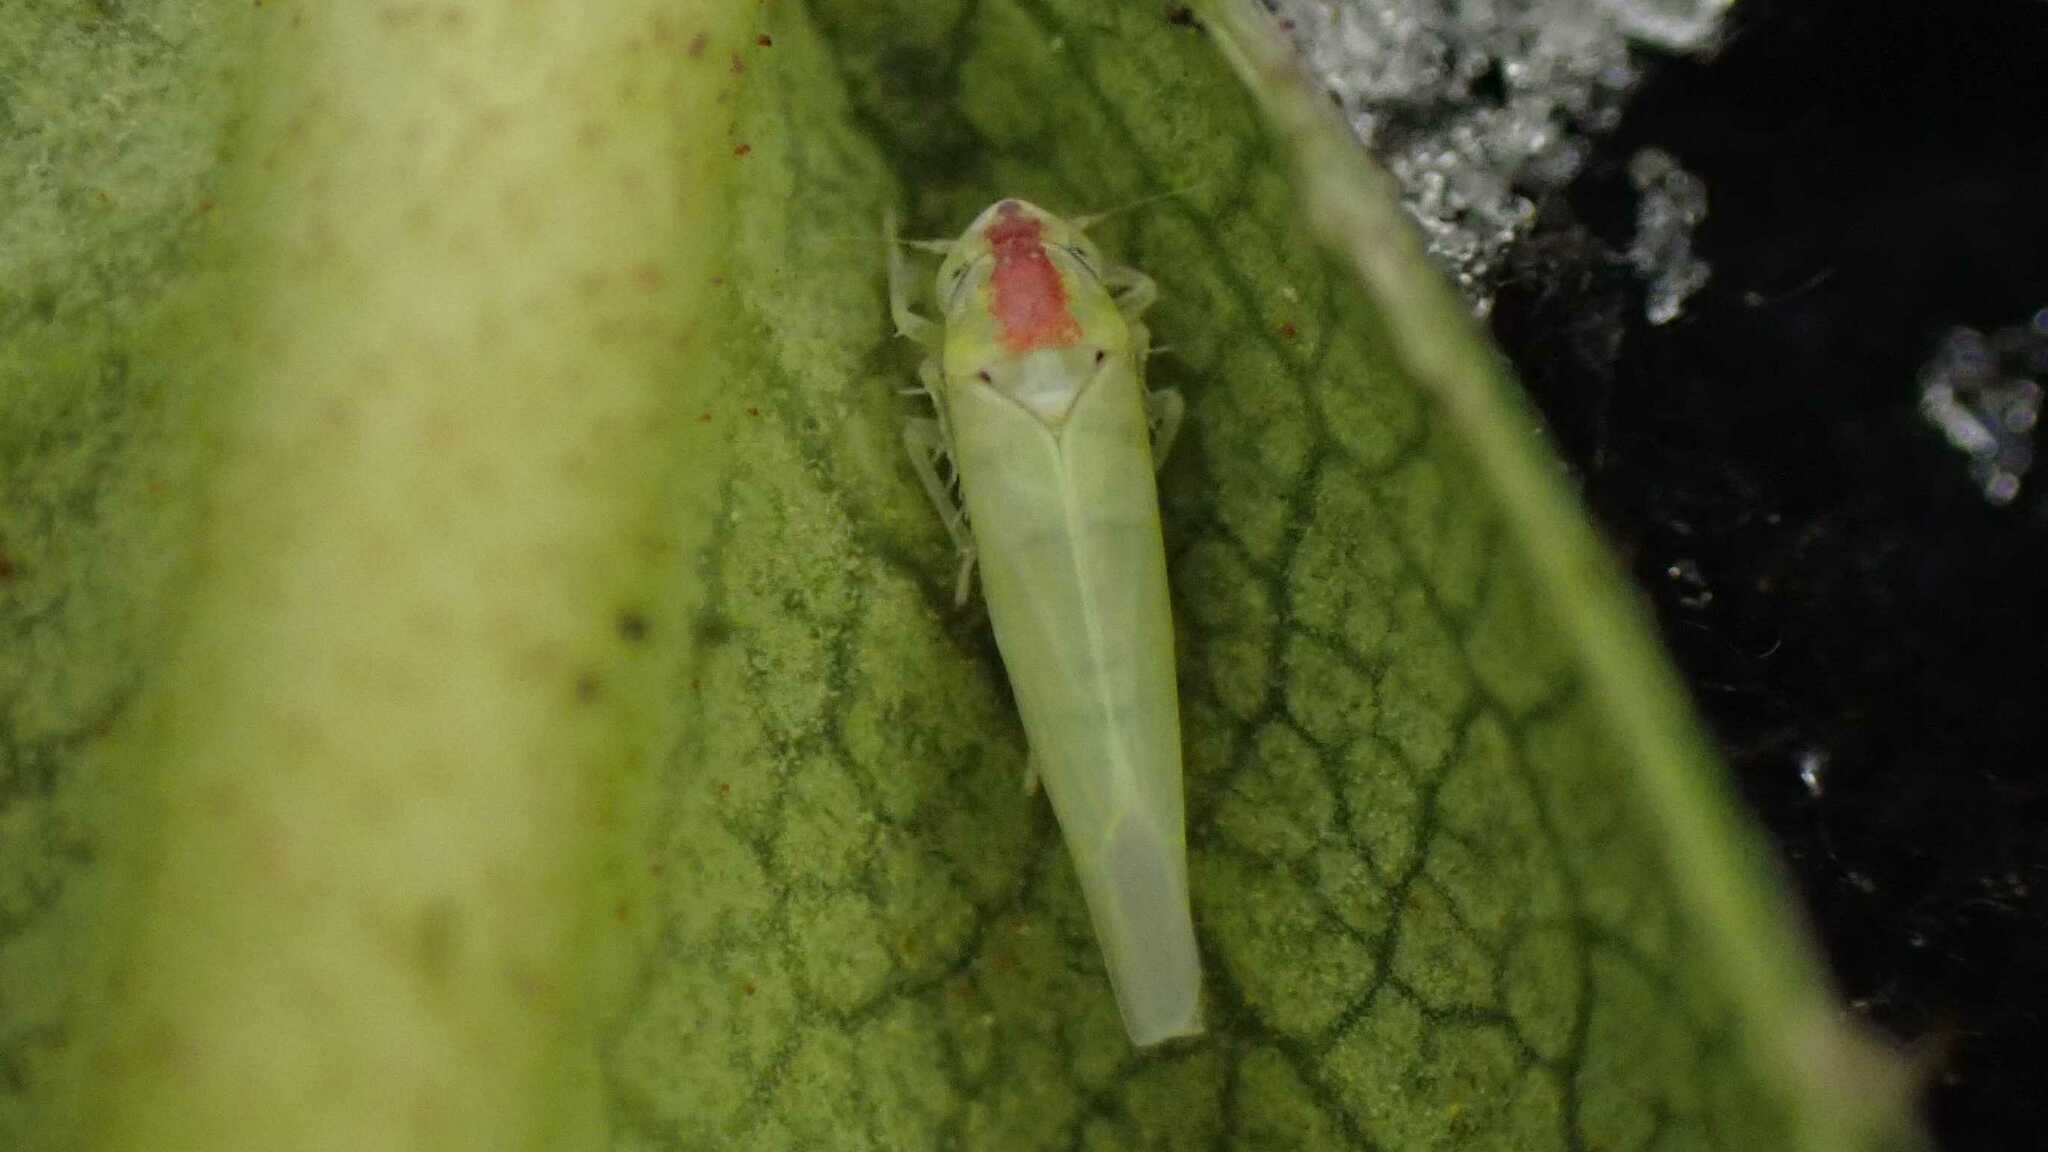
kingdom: Animalia
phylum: Arthropoda
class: Insecta
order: Hemiptera
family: Cicadellidae
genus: Zygina
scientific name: Zygina nivea
